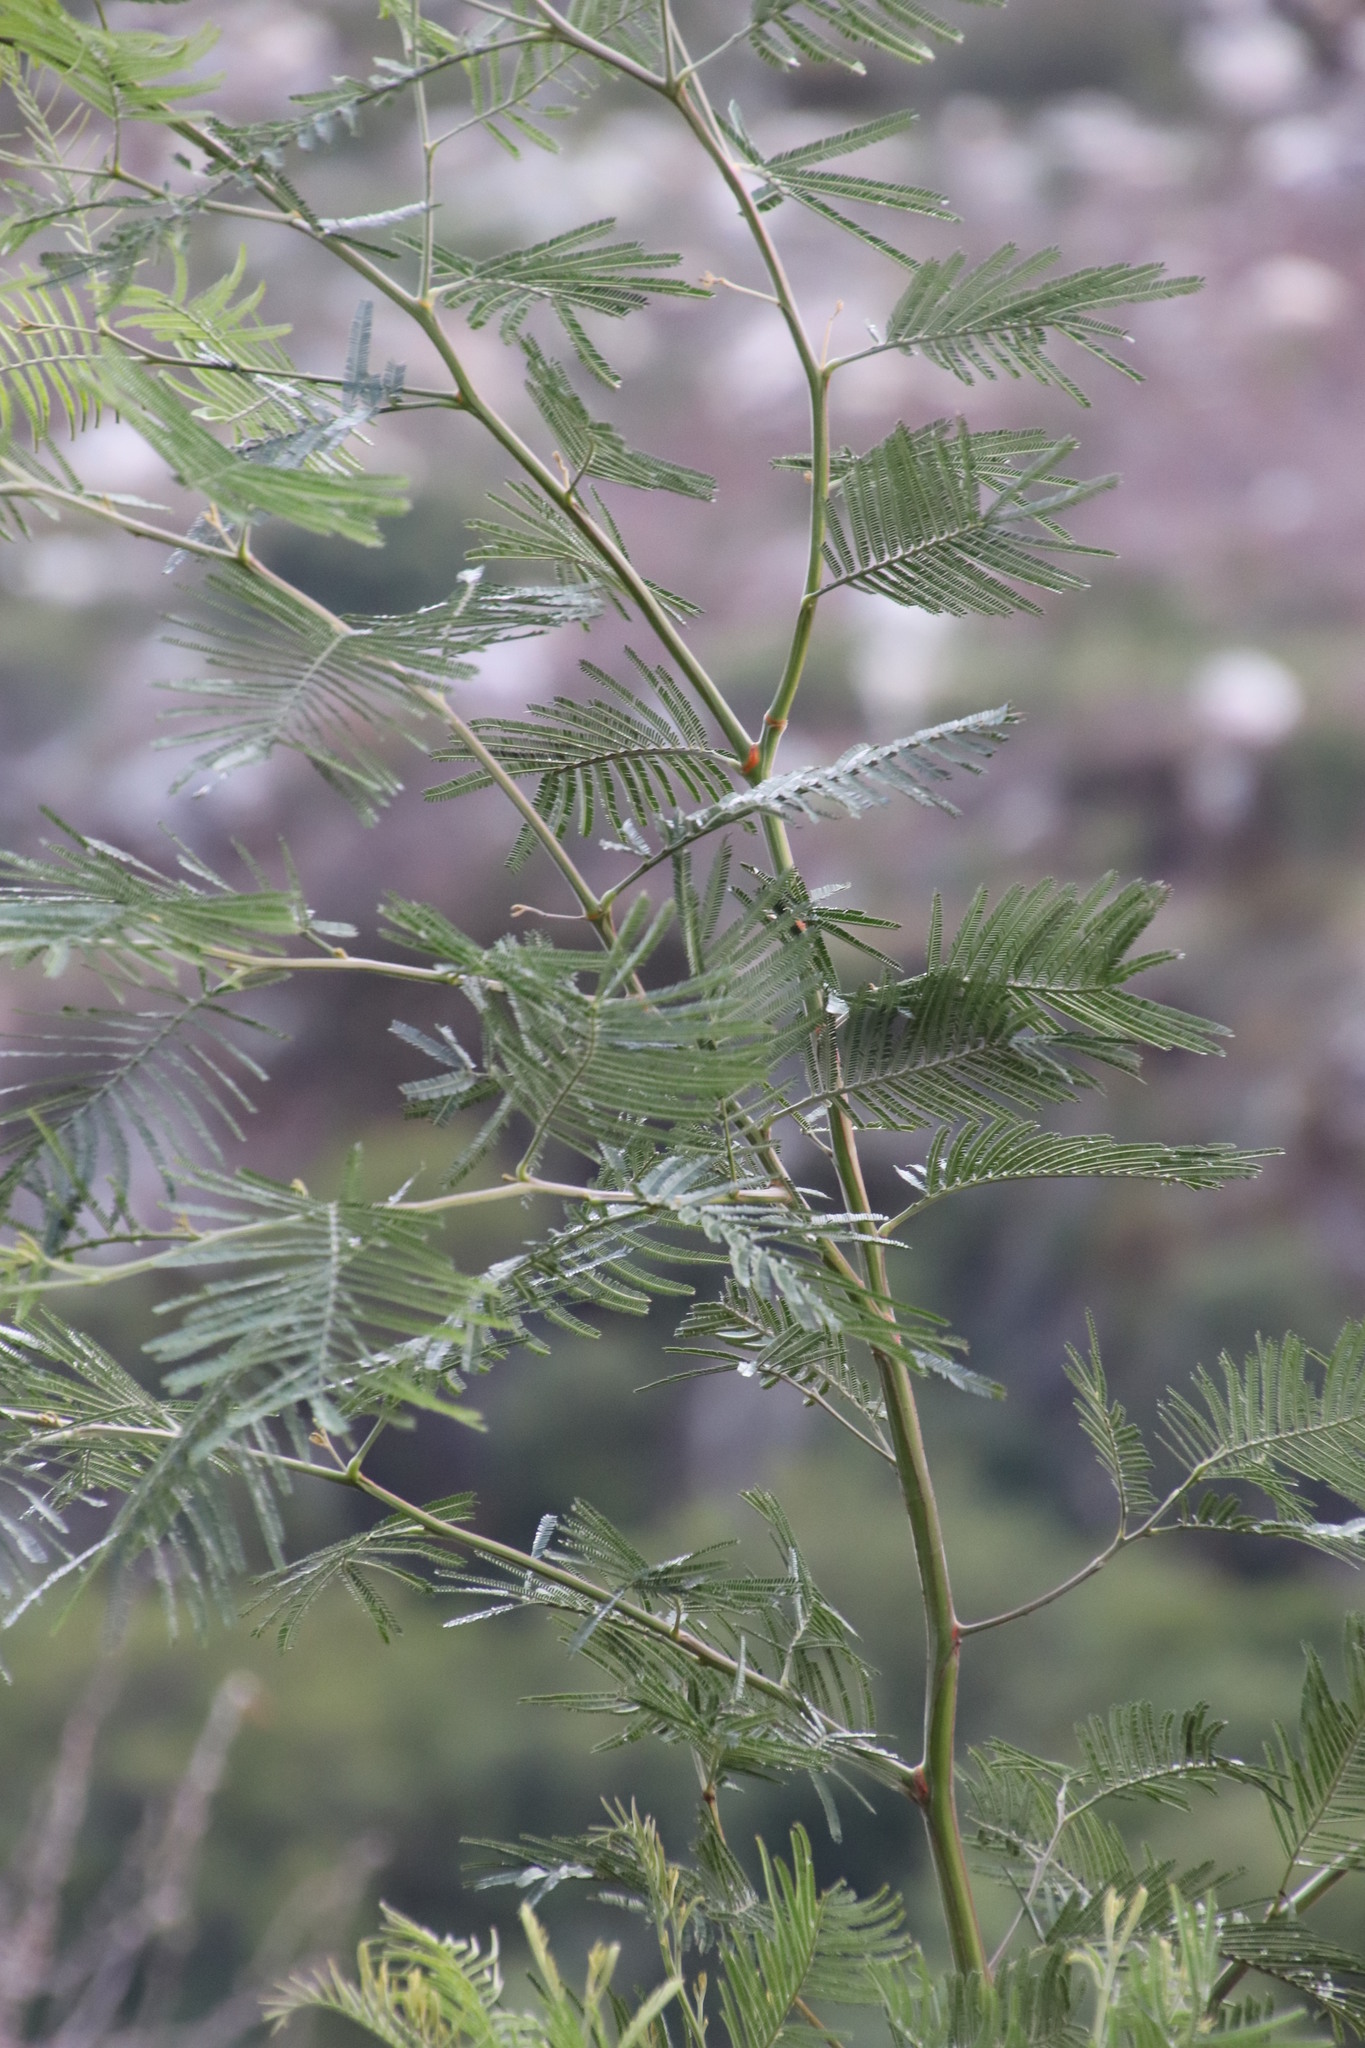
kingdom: Plantae
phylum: Tracheophyta
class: Magnoliopsida
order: Fabales
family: Fabaceae
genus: Acacia
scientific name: Acacia mearnsii
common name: Black wattle
